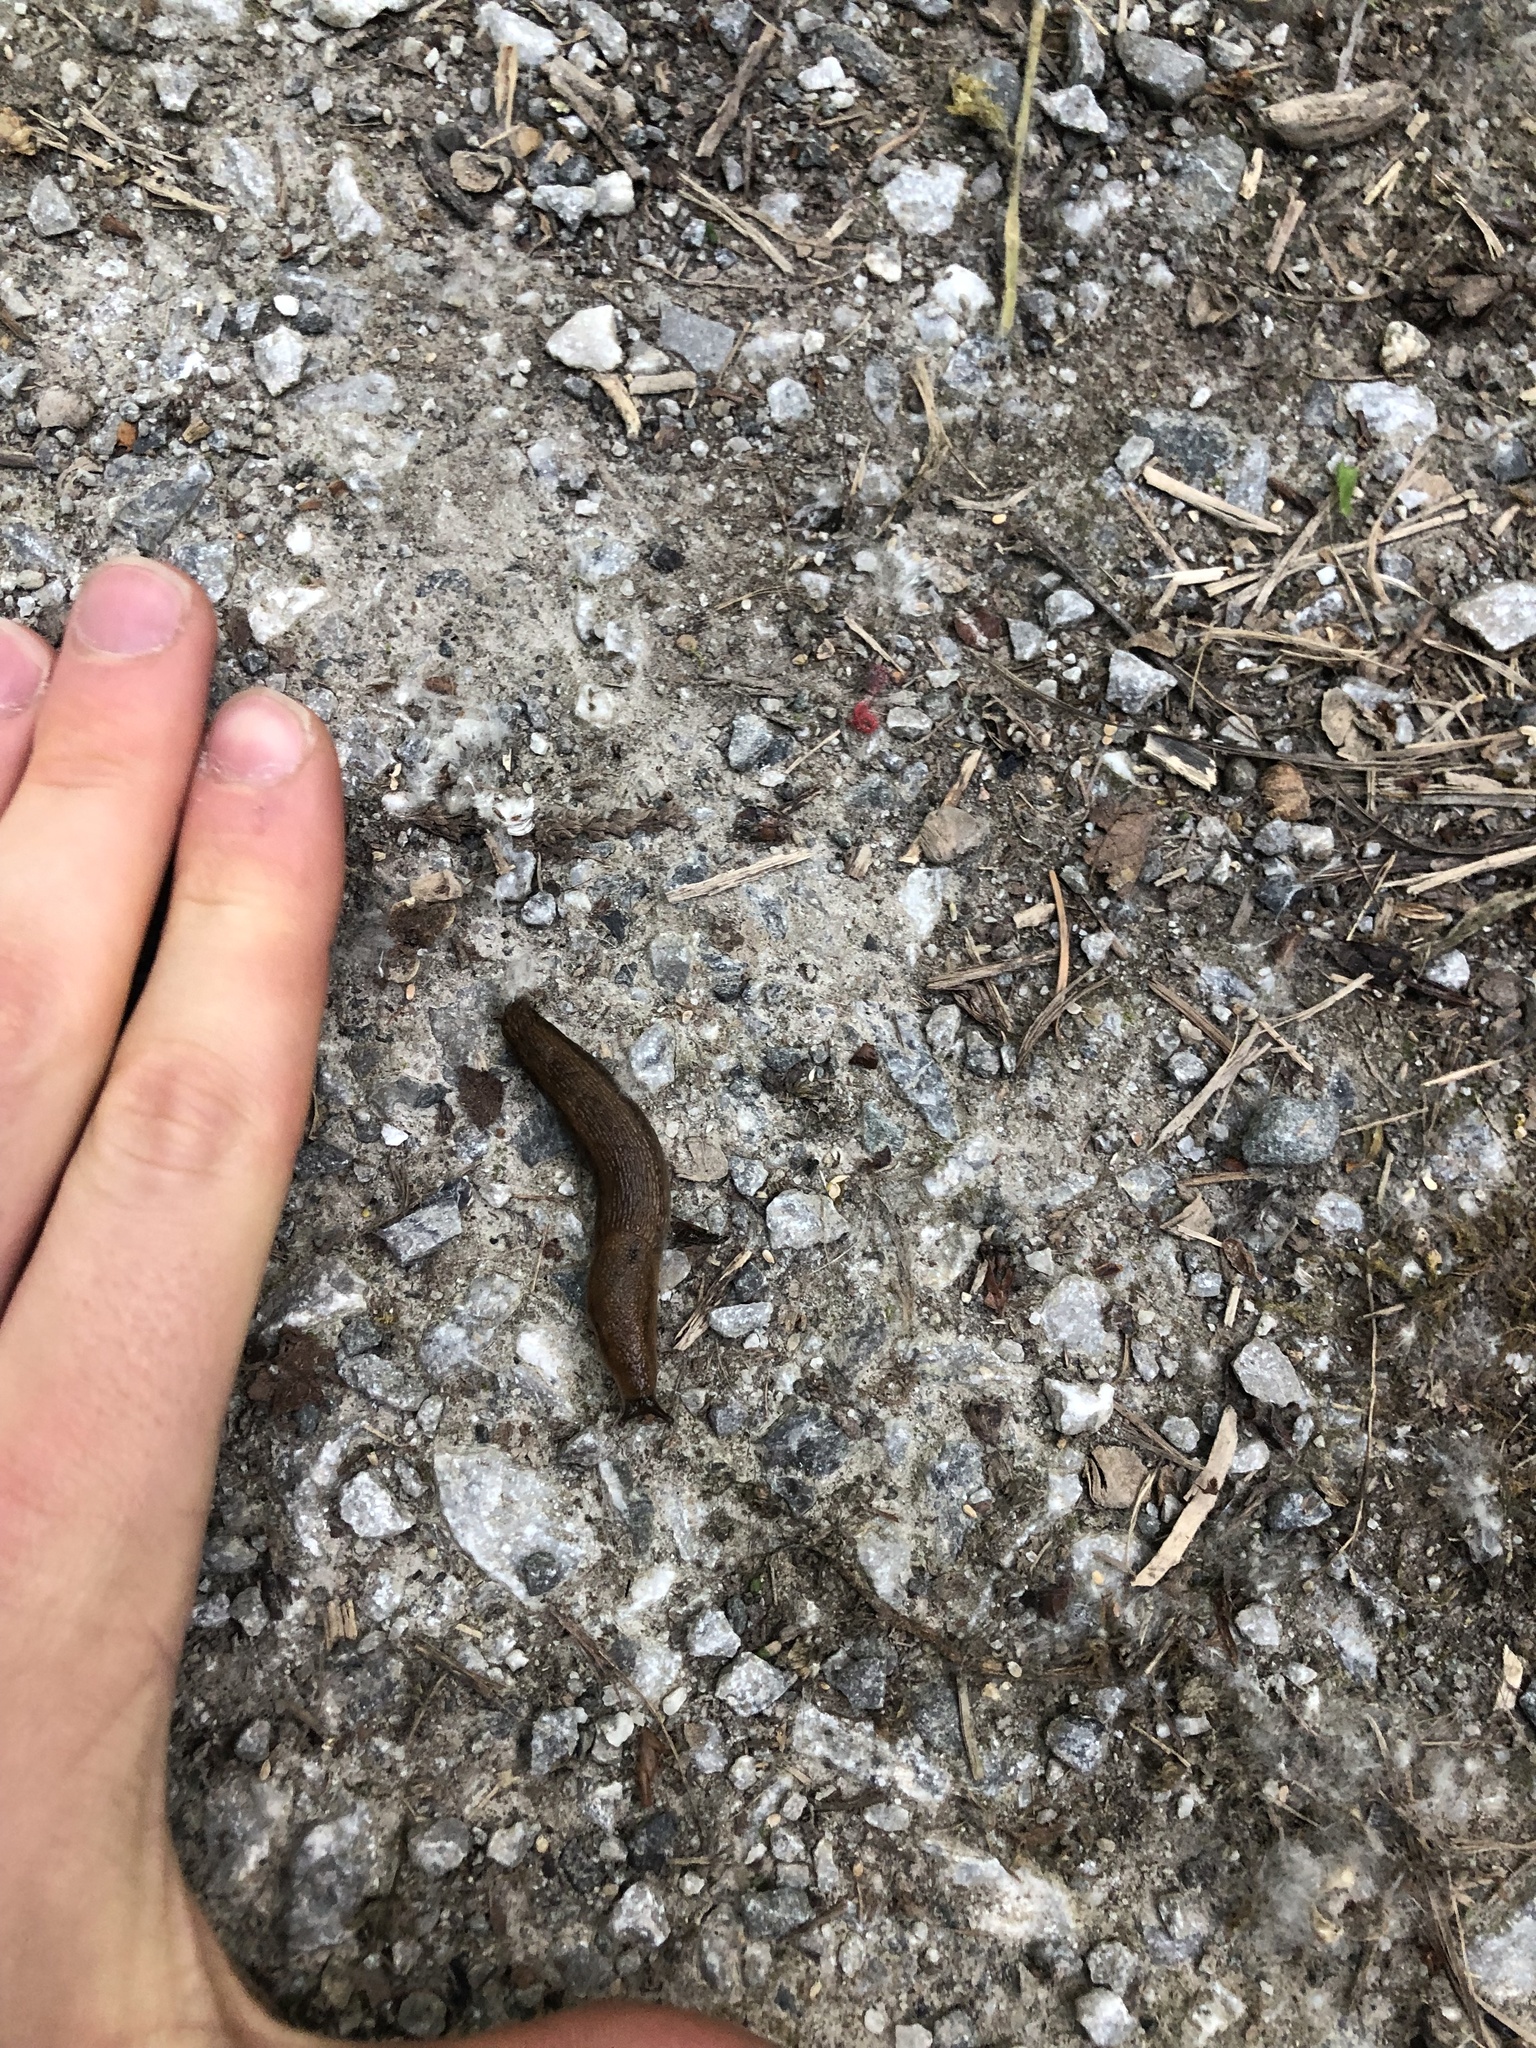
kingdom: Animalia
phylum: Mollusca
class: Gastropoda
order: Stylommatophora
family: Arionidae
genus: Arion
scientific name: Arion
